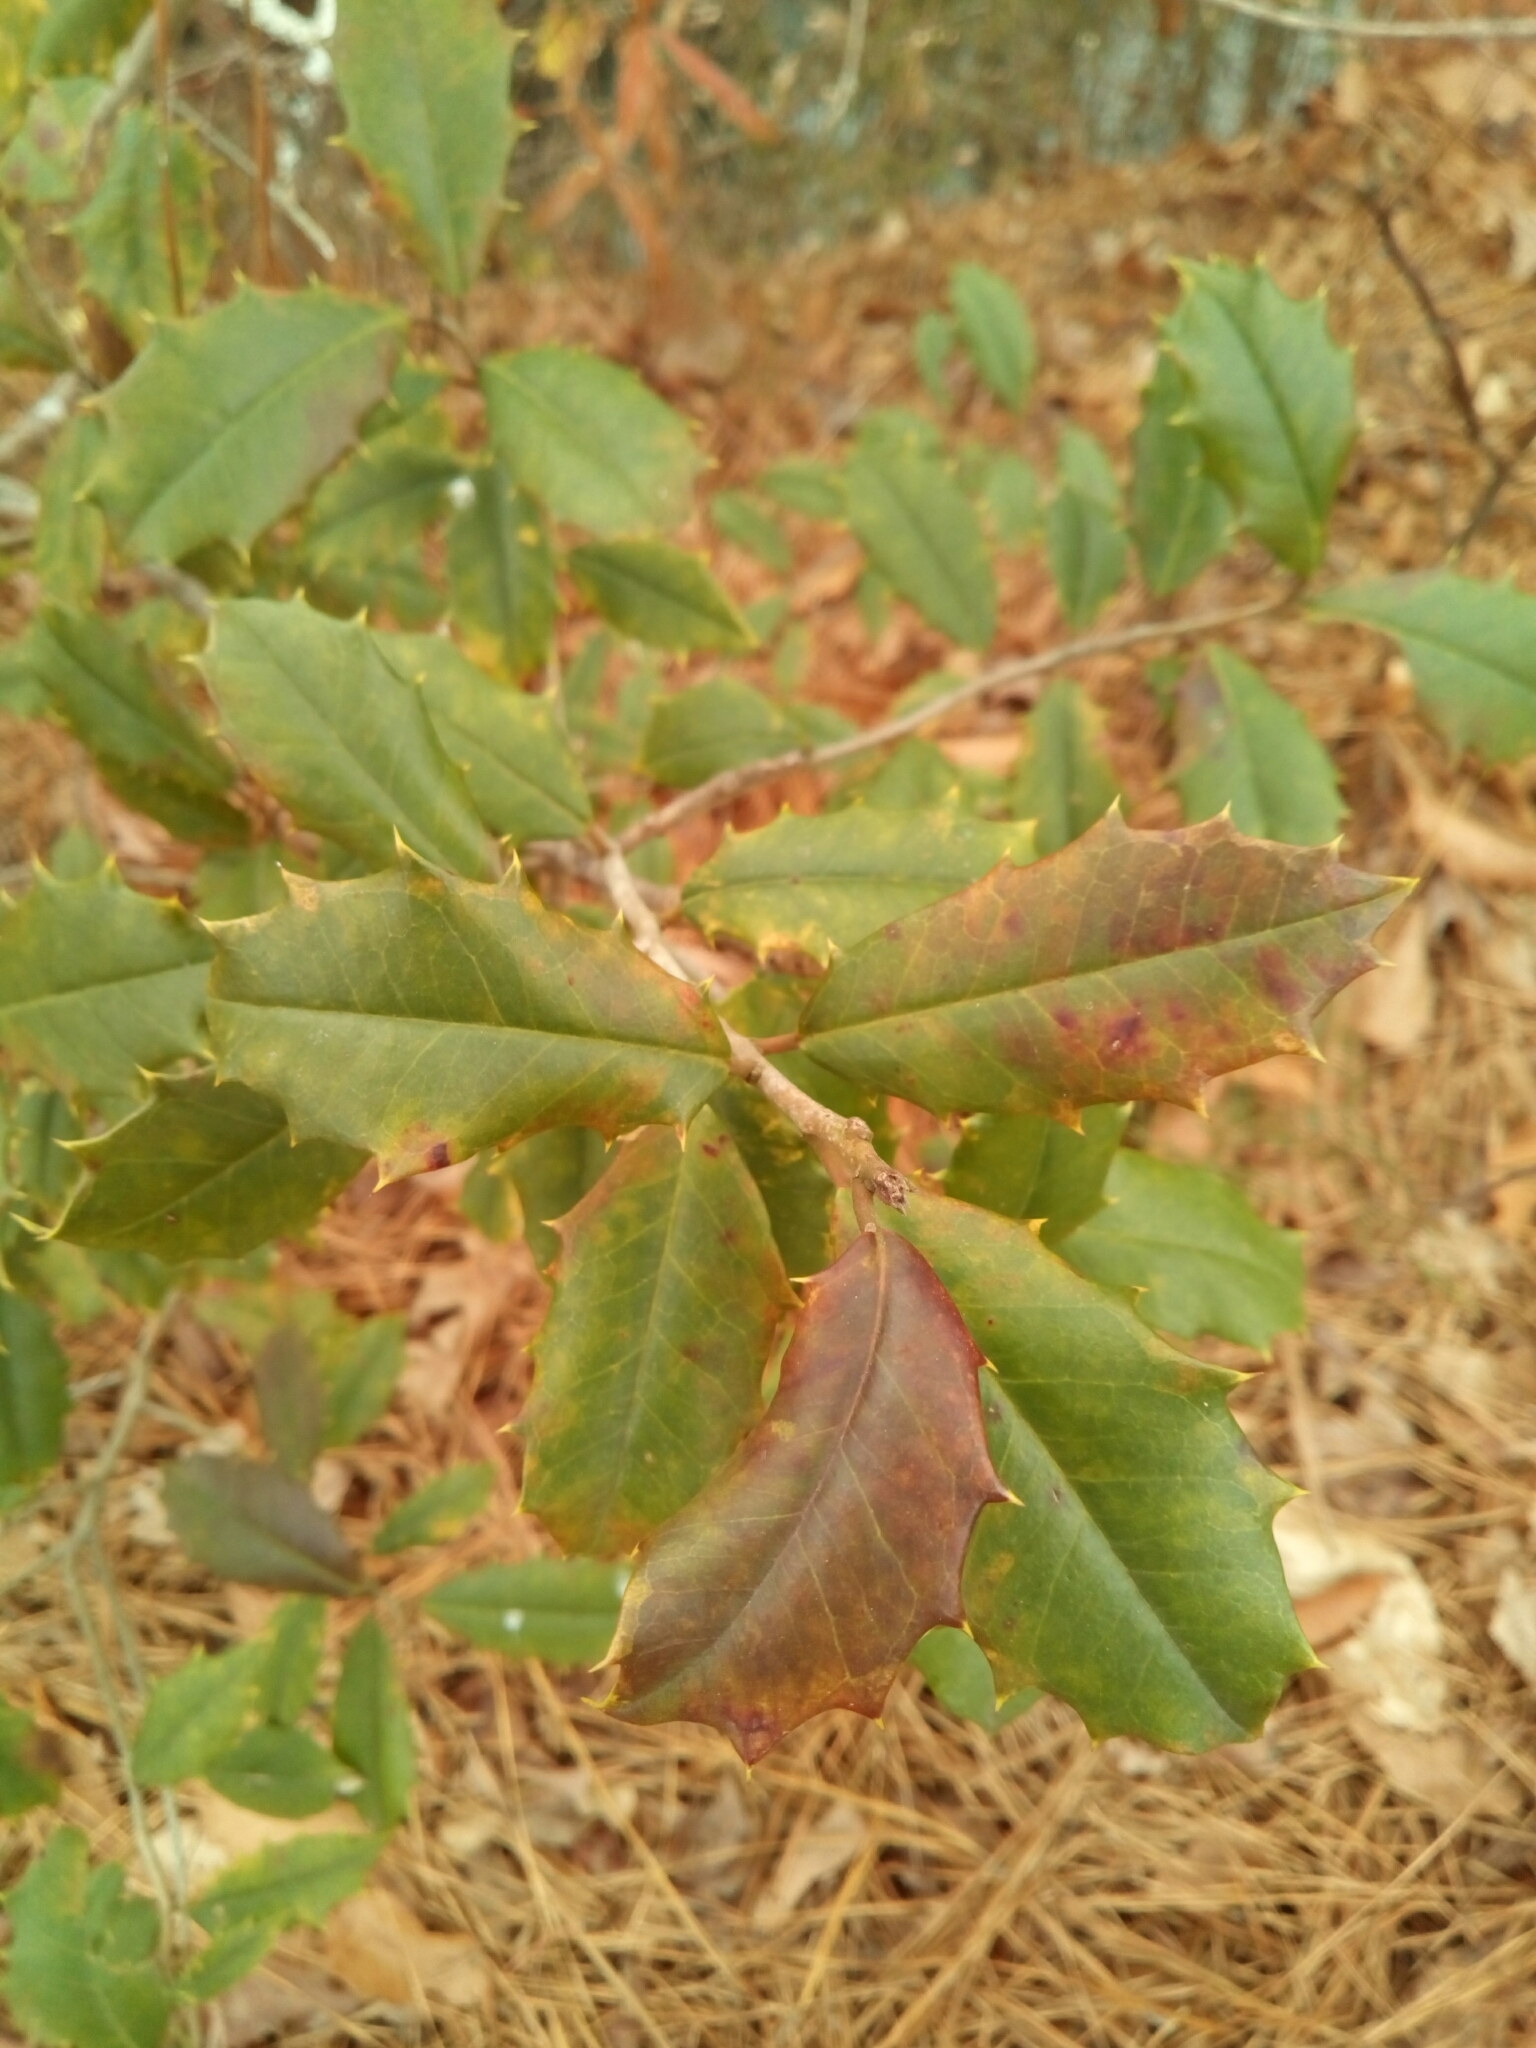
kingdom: Plantae
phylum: Tracheophyta
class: Magnoliopsida
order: Aquifoliales
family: Aquifoliaceae
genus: Ilex
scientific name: Ilex opaca
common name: American holly
